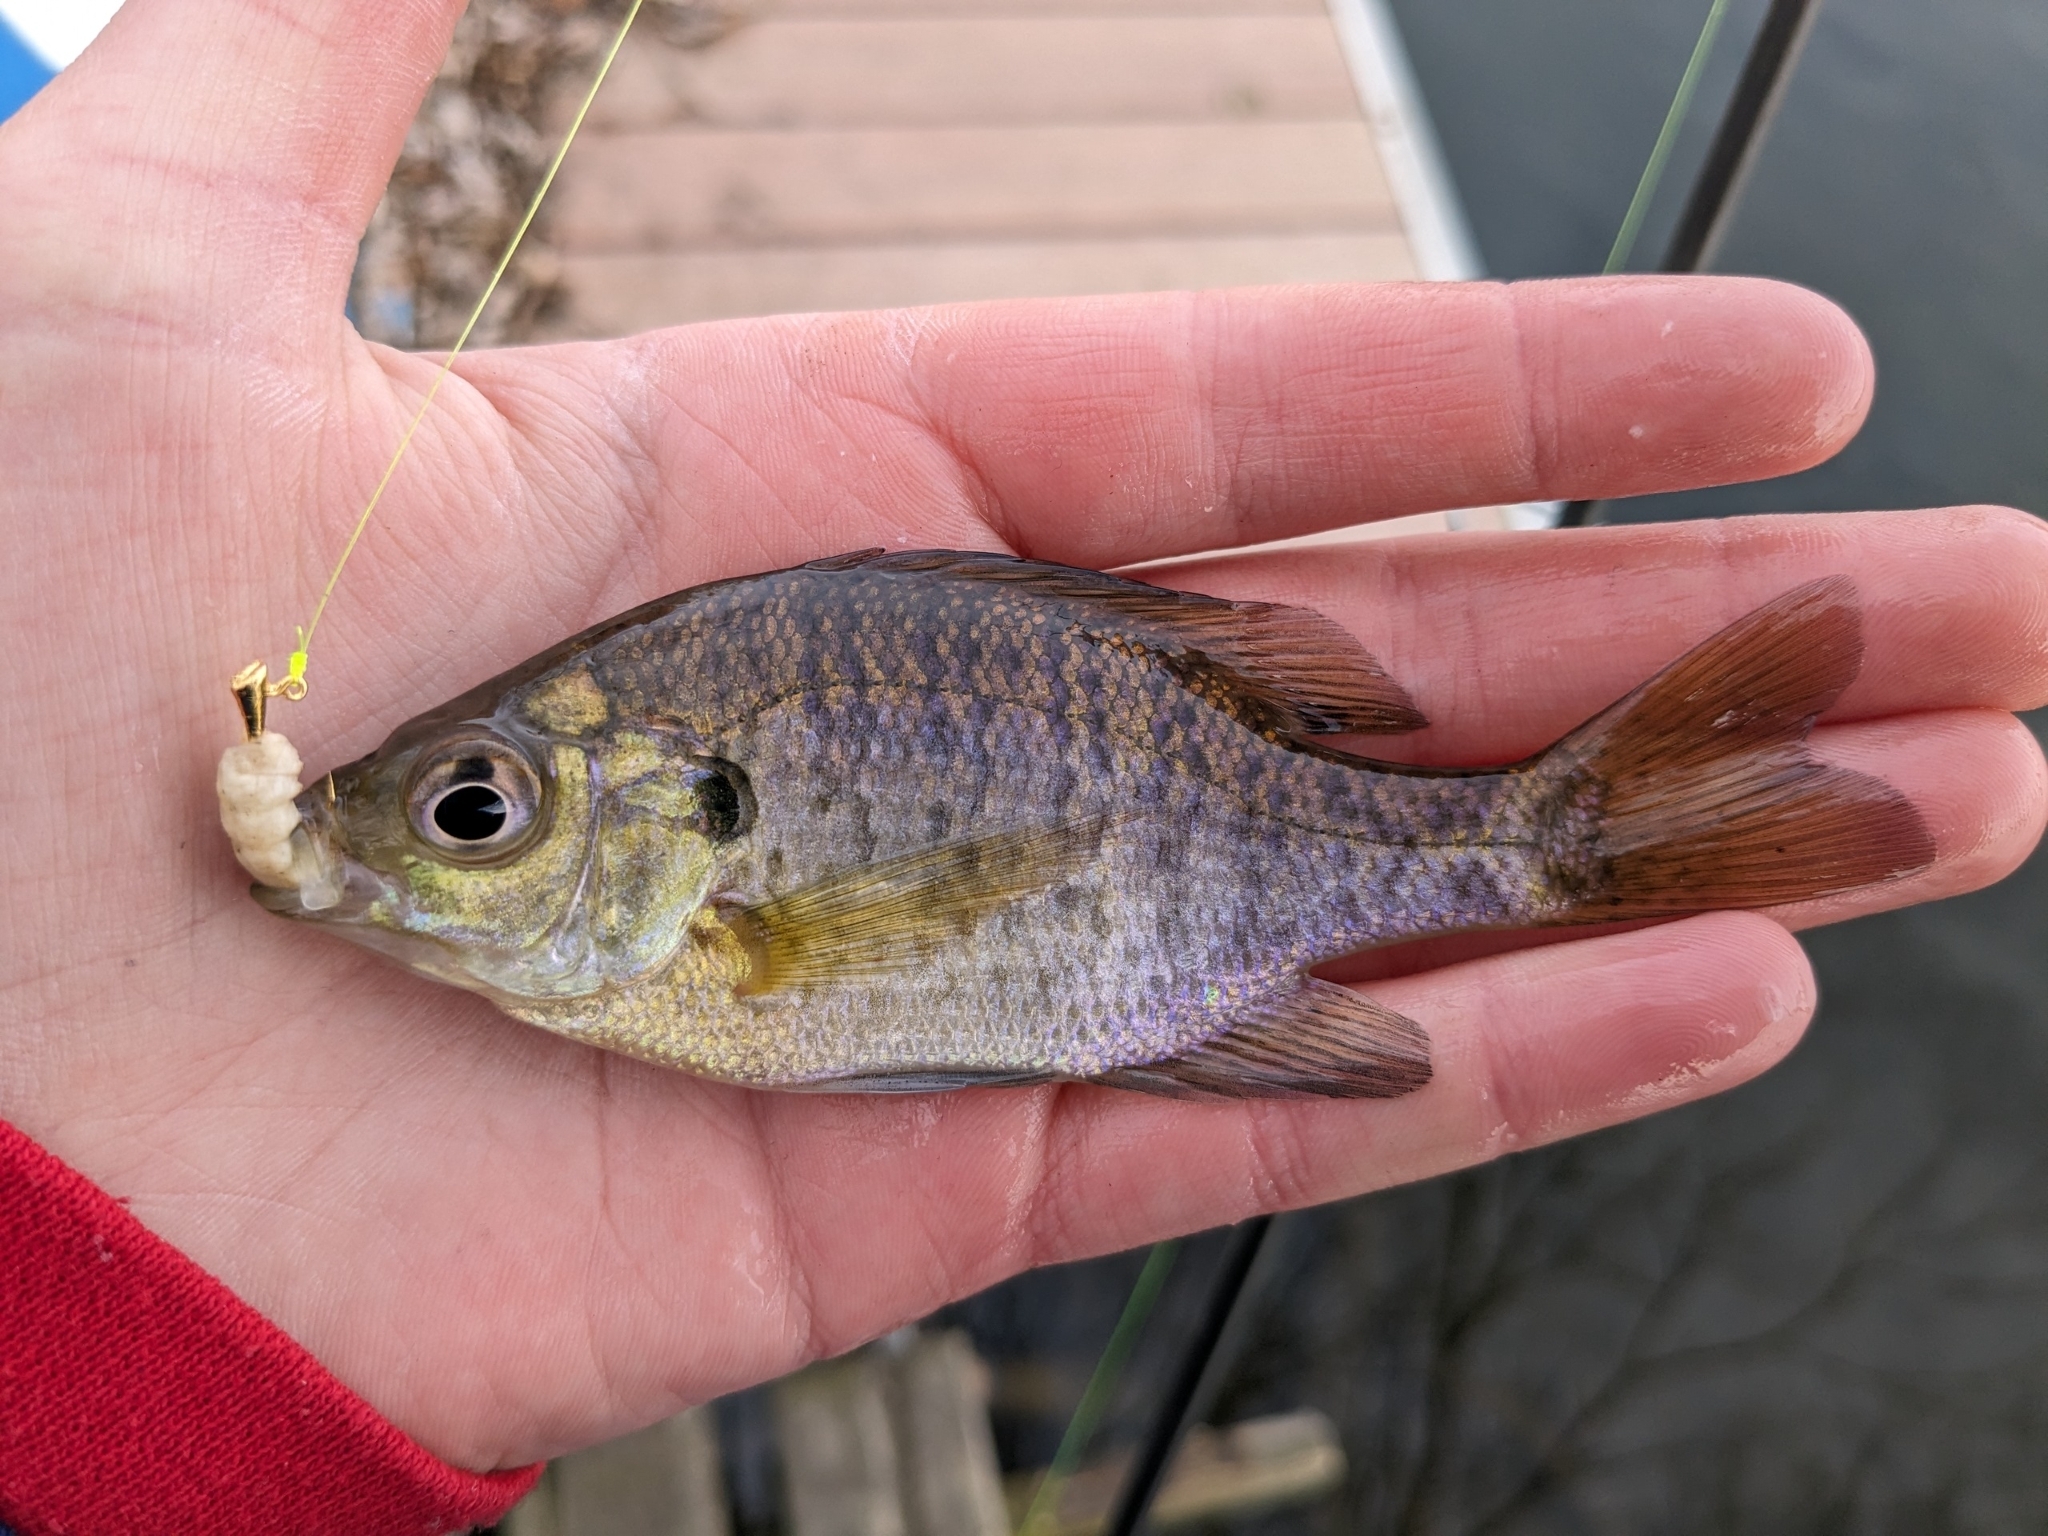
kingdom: Animalia
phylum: Chordata
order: Perciformes
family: Centrarchidae
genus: Lepomis
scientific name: Lepomis macrochirus
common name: Bluegill
